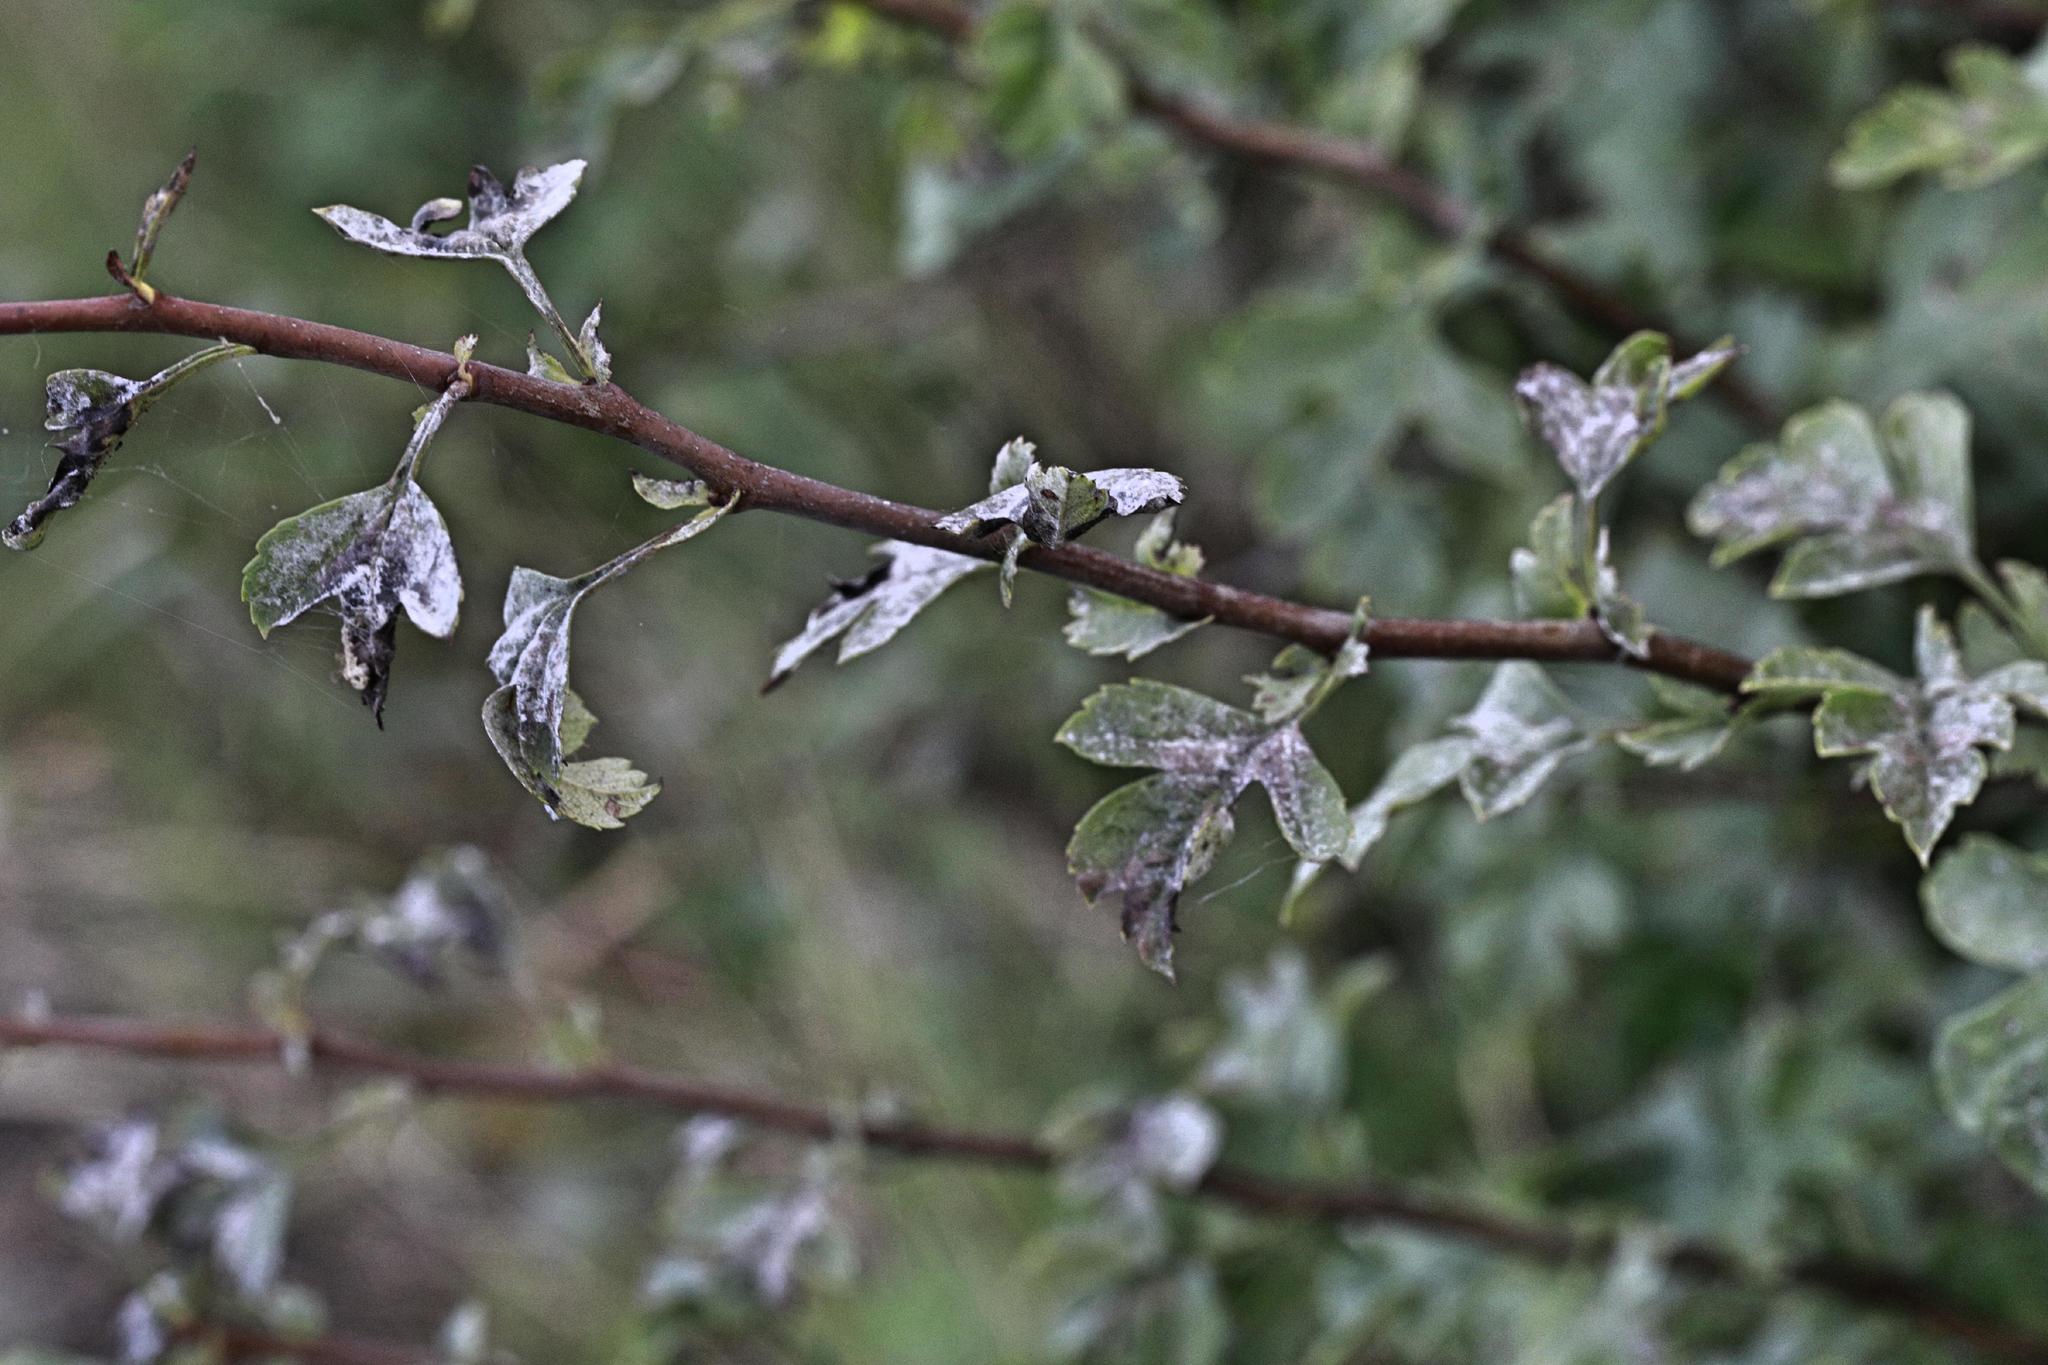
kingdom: Fungi
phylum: Ascomycota
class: Leotiomycetes
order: Helotiales
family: Erysiphaceae
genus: Podosphaera
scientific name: Podosphaera clandestina
